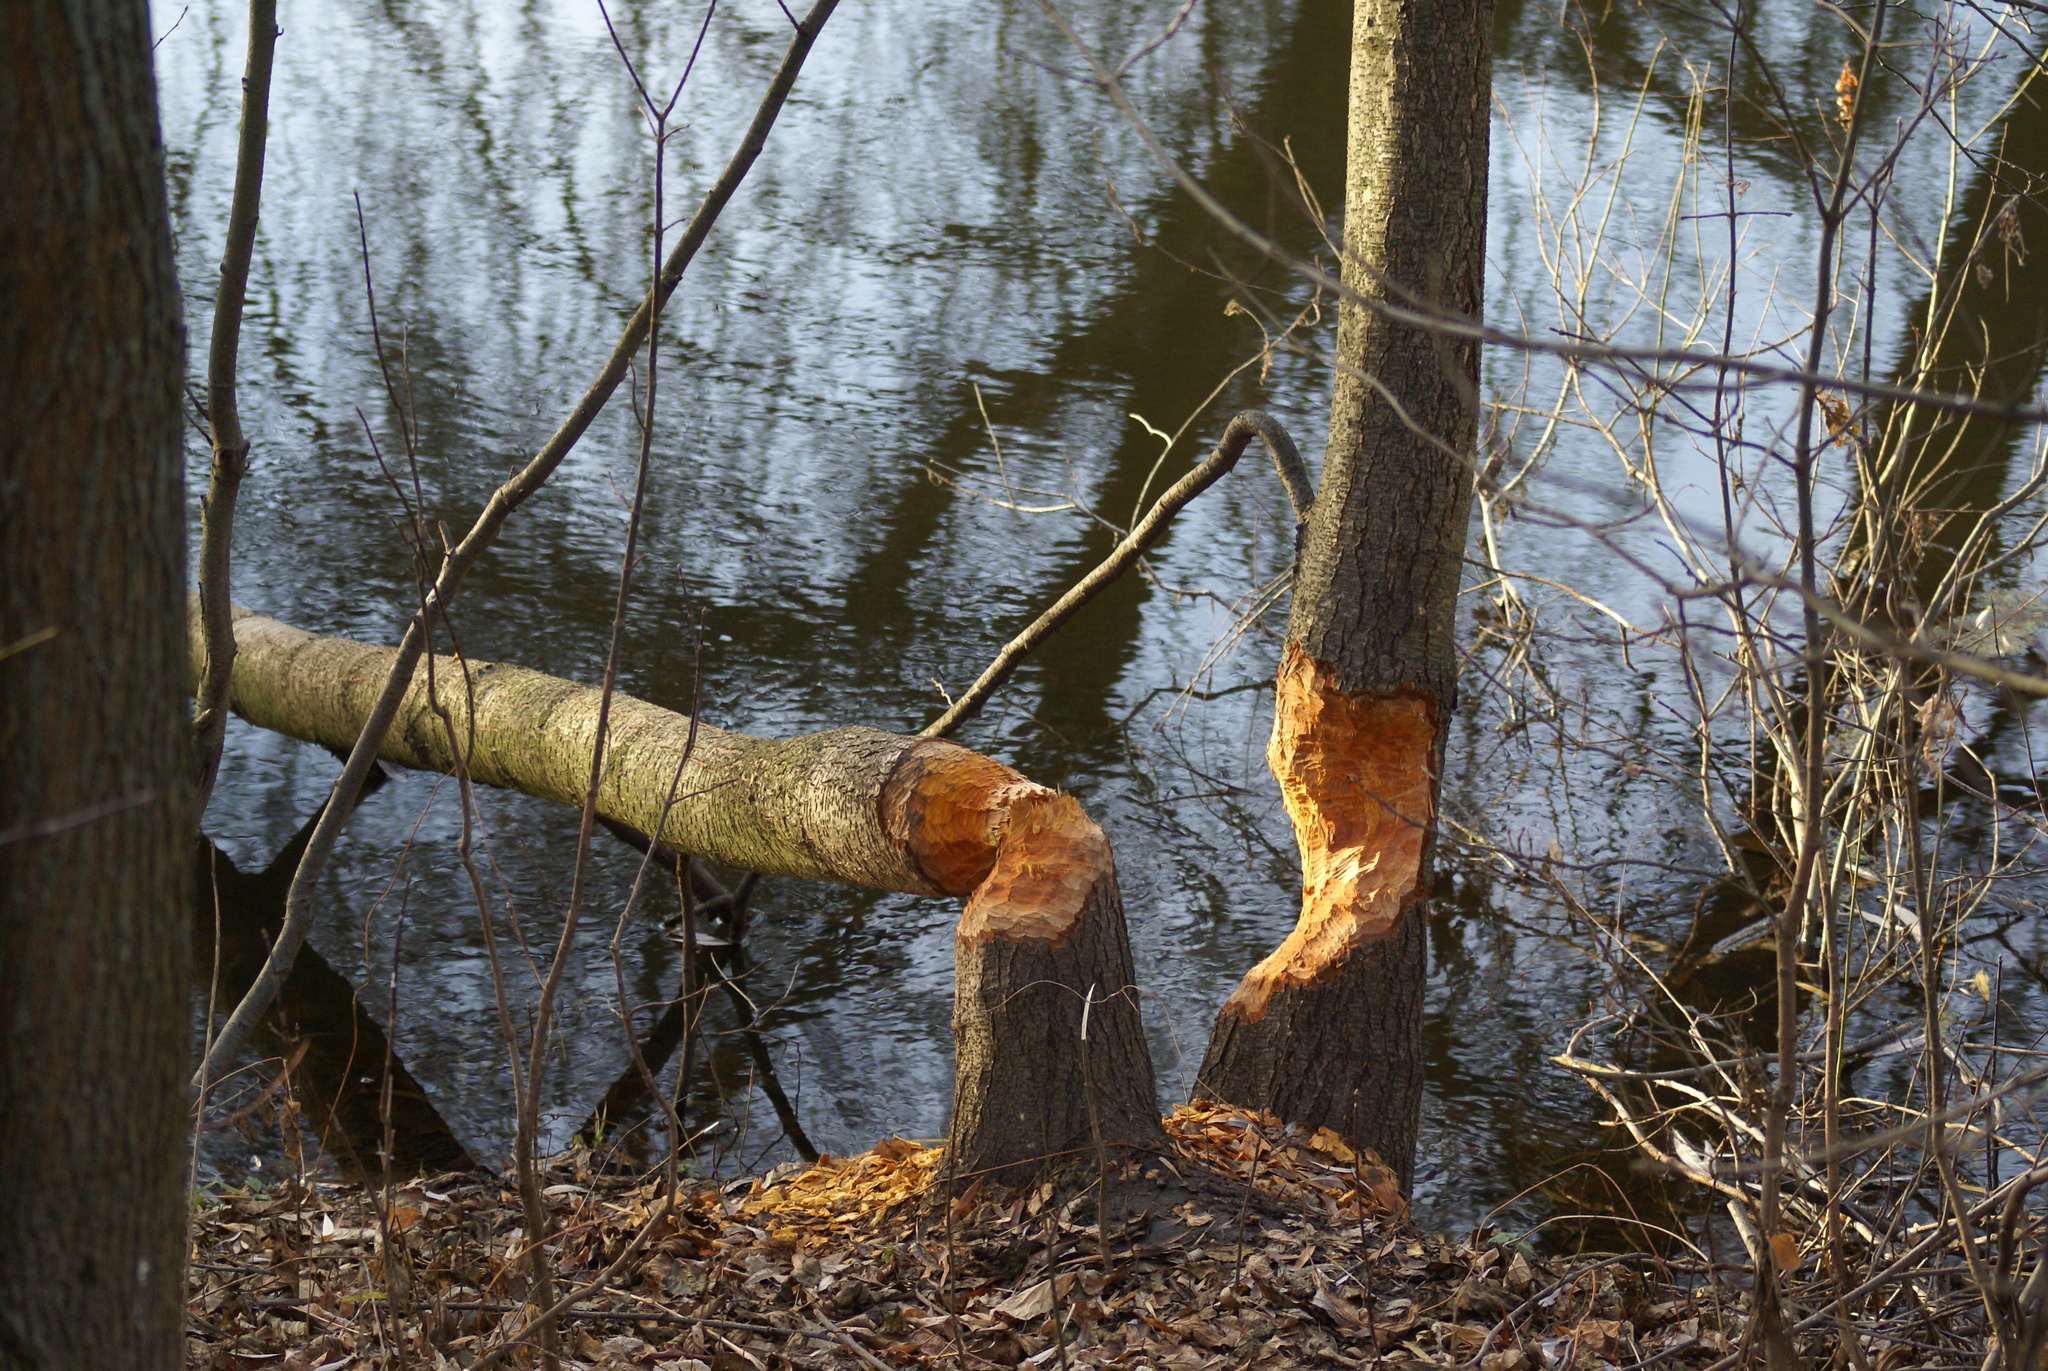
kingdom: Animalia
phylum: Chordata
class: Mammalia
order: Rodentia
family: Castoridae
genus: Castor
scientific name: Castor fiber
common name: Eurasian beaver
